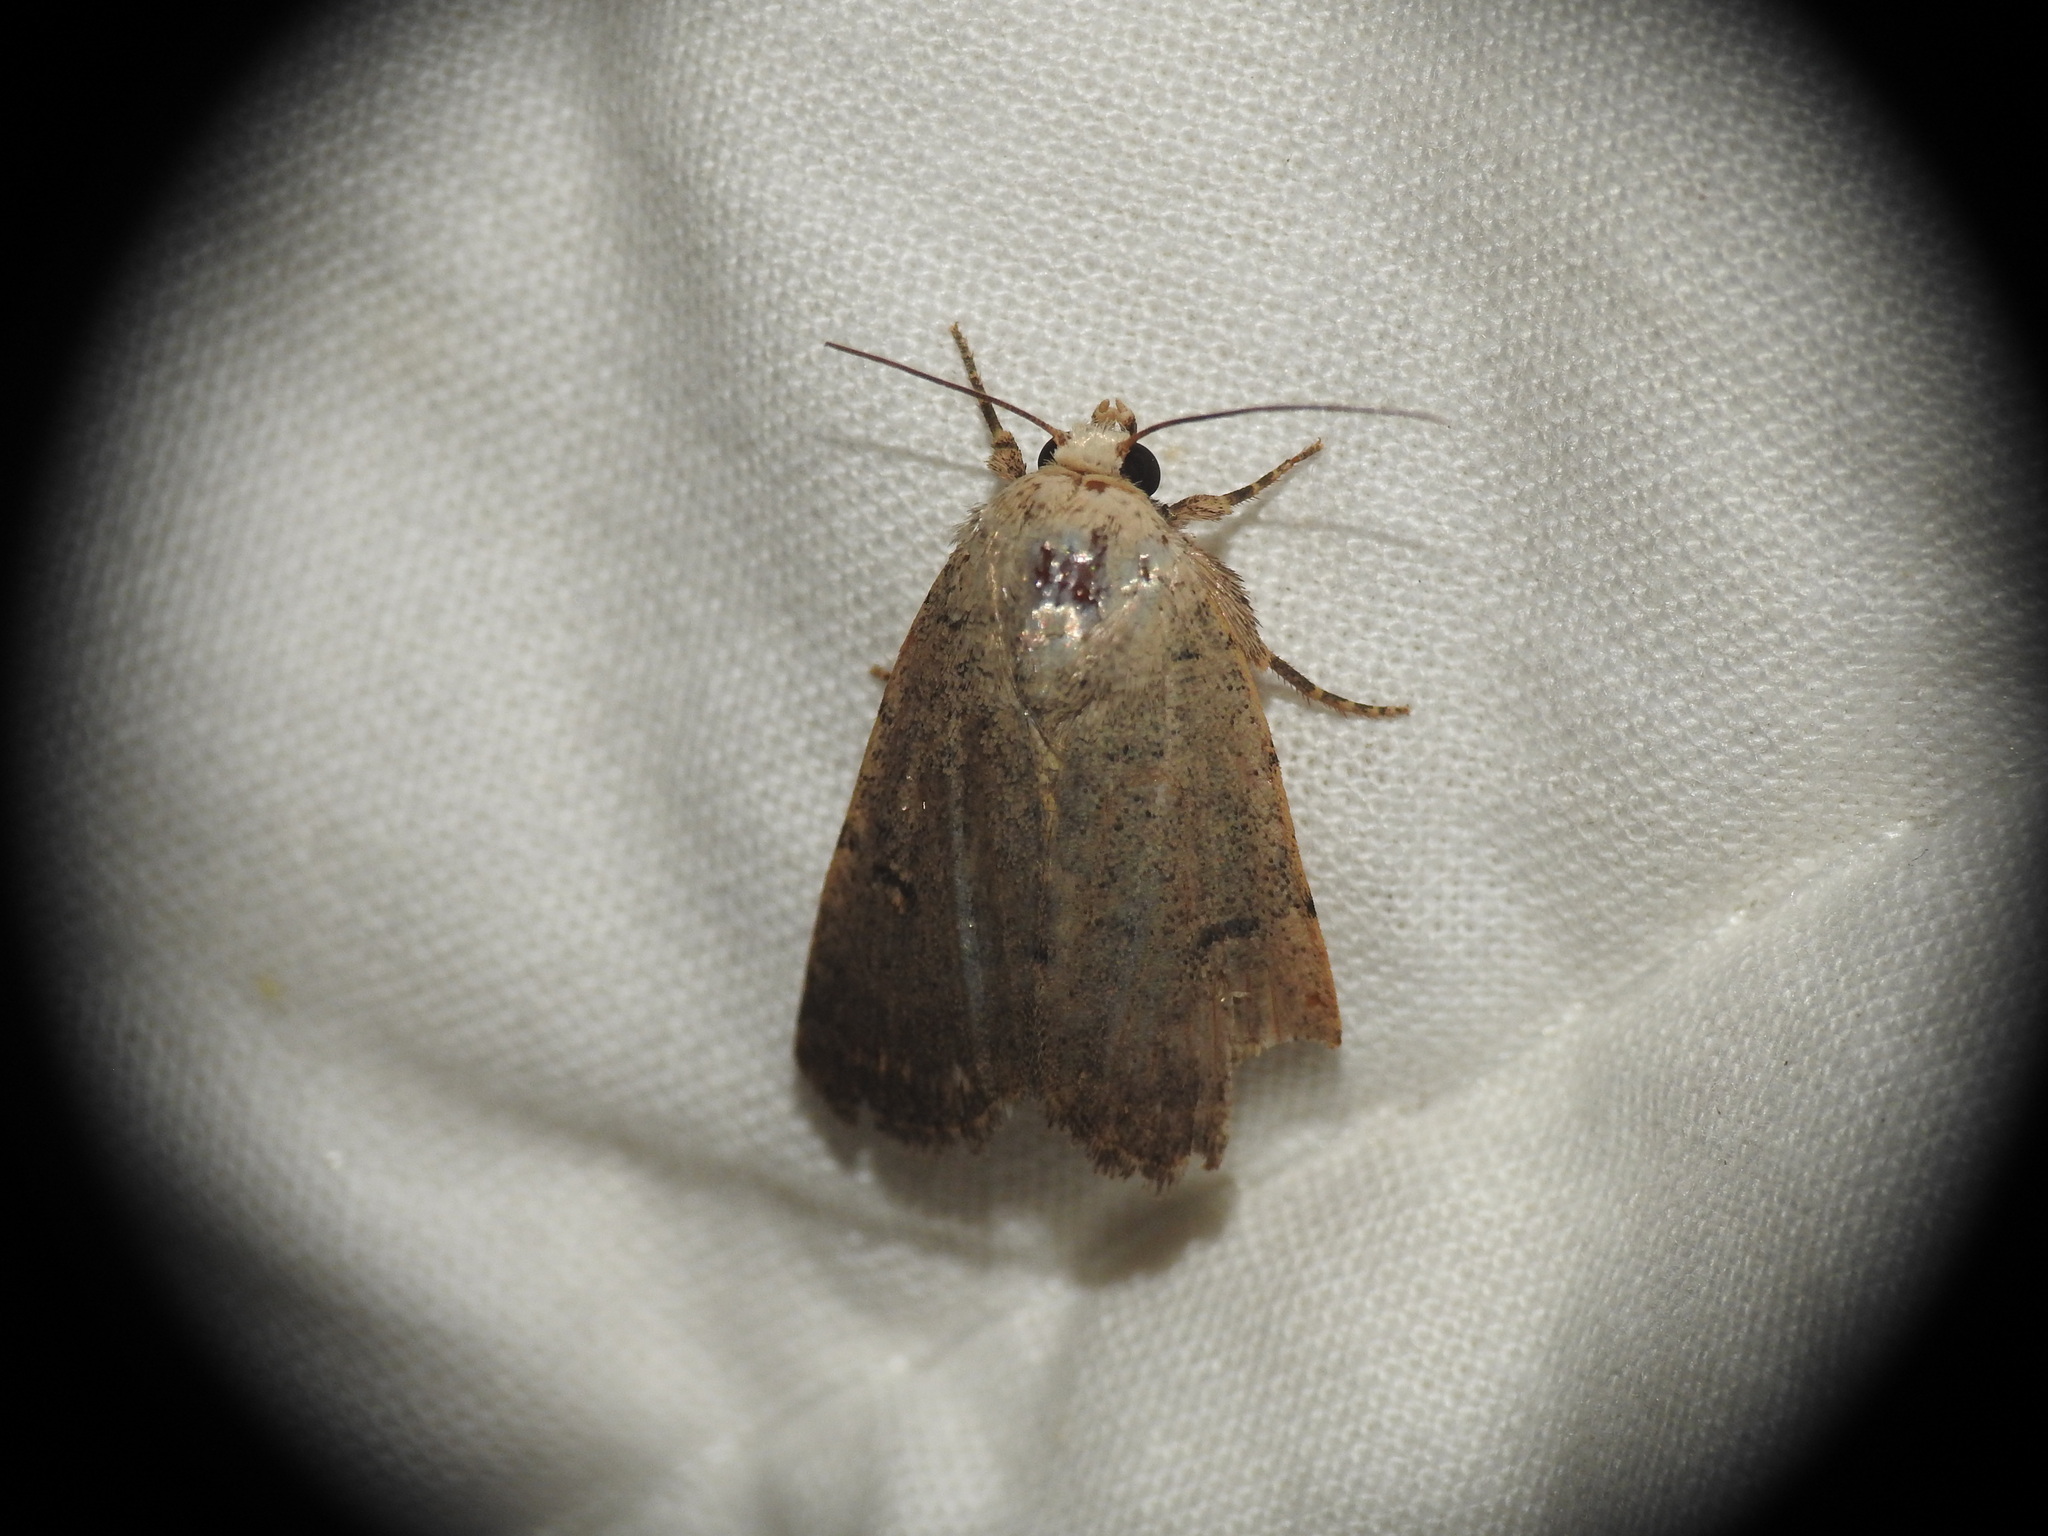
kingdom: Animalia
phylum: Arthropoda
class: Insecta
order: Lepidoptera
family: Noctuidae
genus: Caradrina
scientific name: Caradrina aspersa
